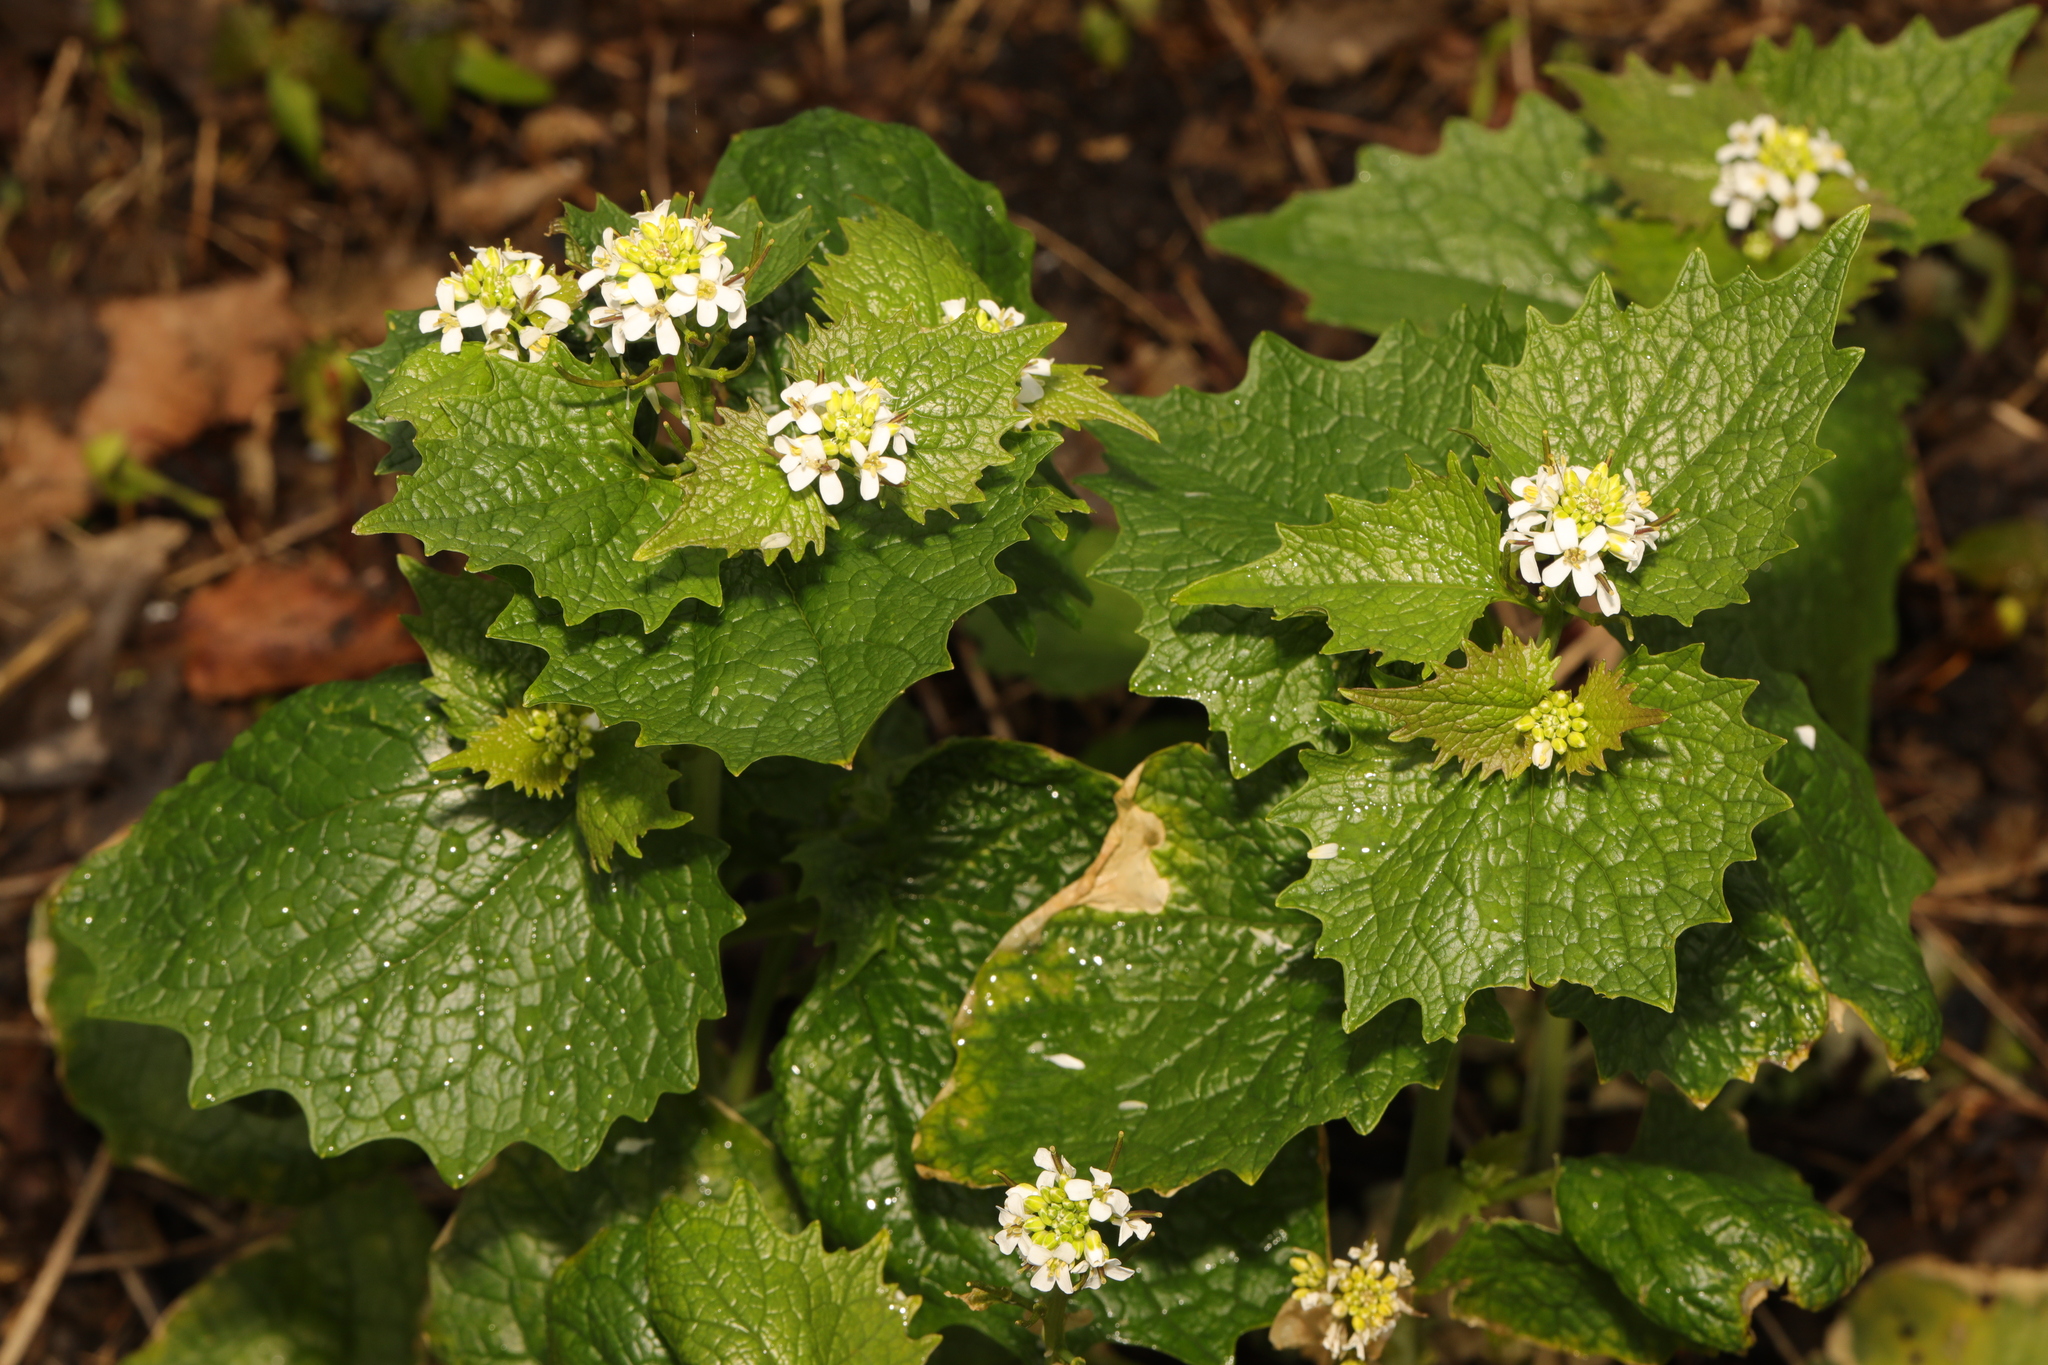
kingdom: Plantae
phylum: Tracheophyta
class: Magnoliopsida
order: Brassicales
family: Brassicaceae
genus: Alliaria
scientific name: Alliaria petiolata
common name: Garlic mustard
